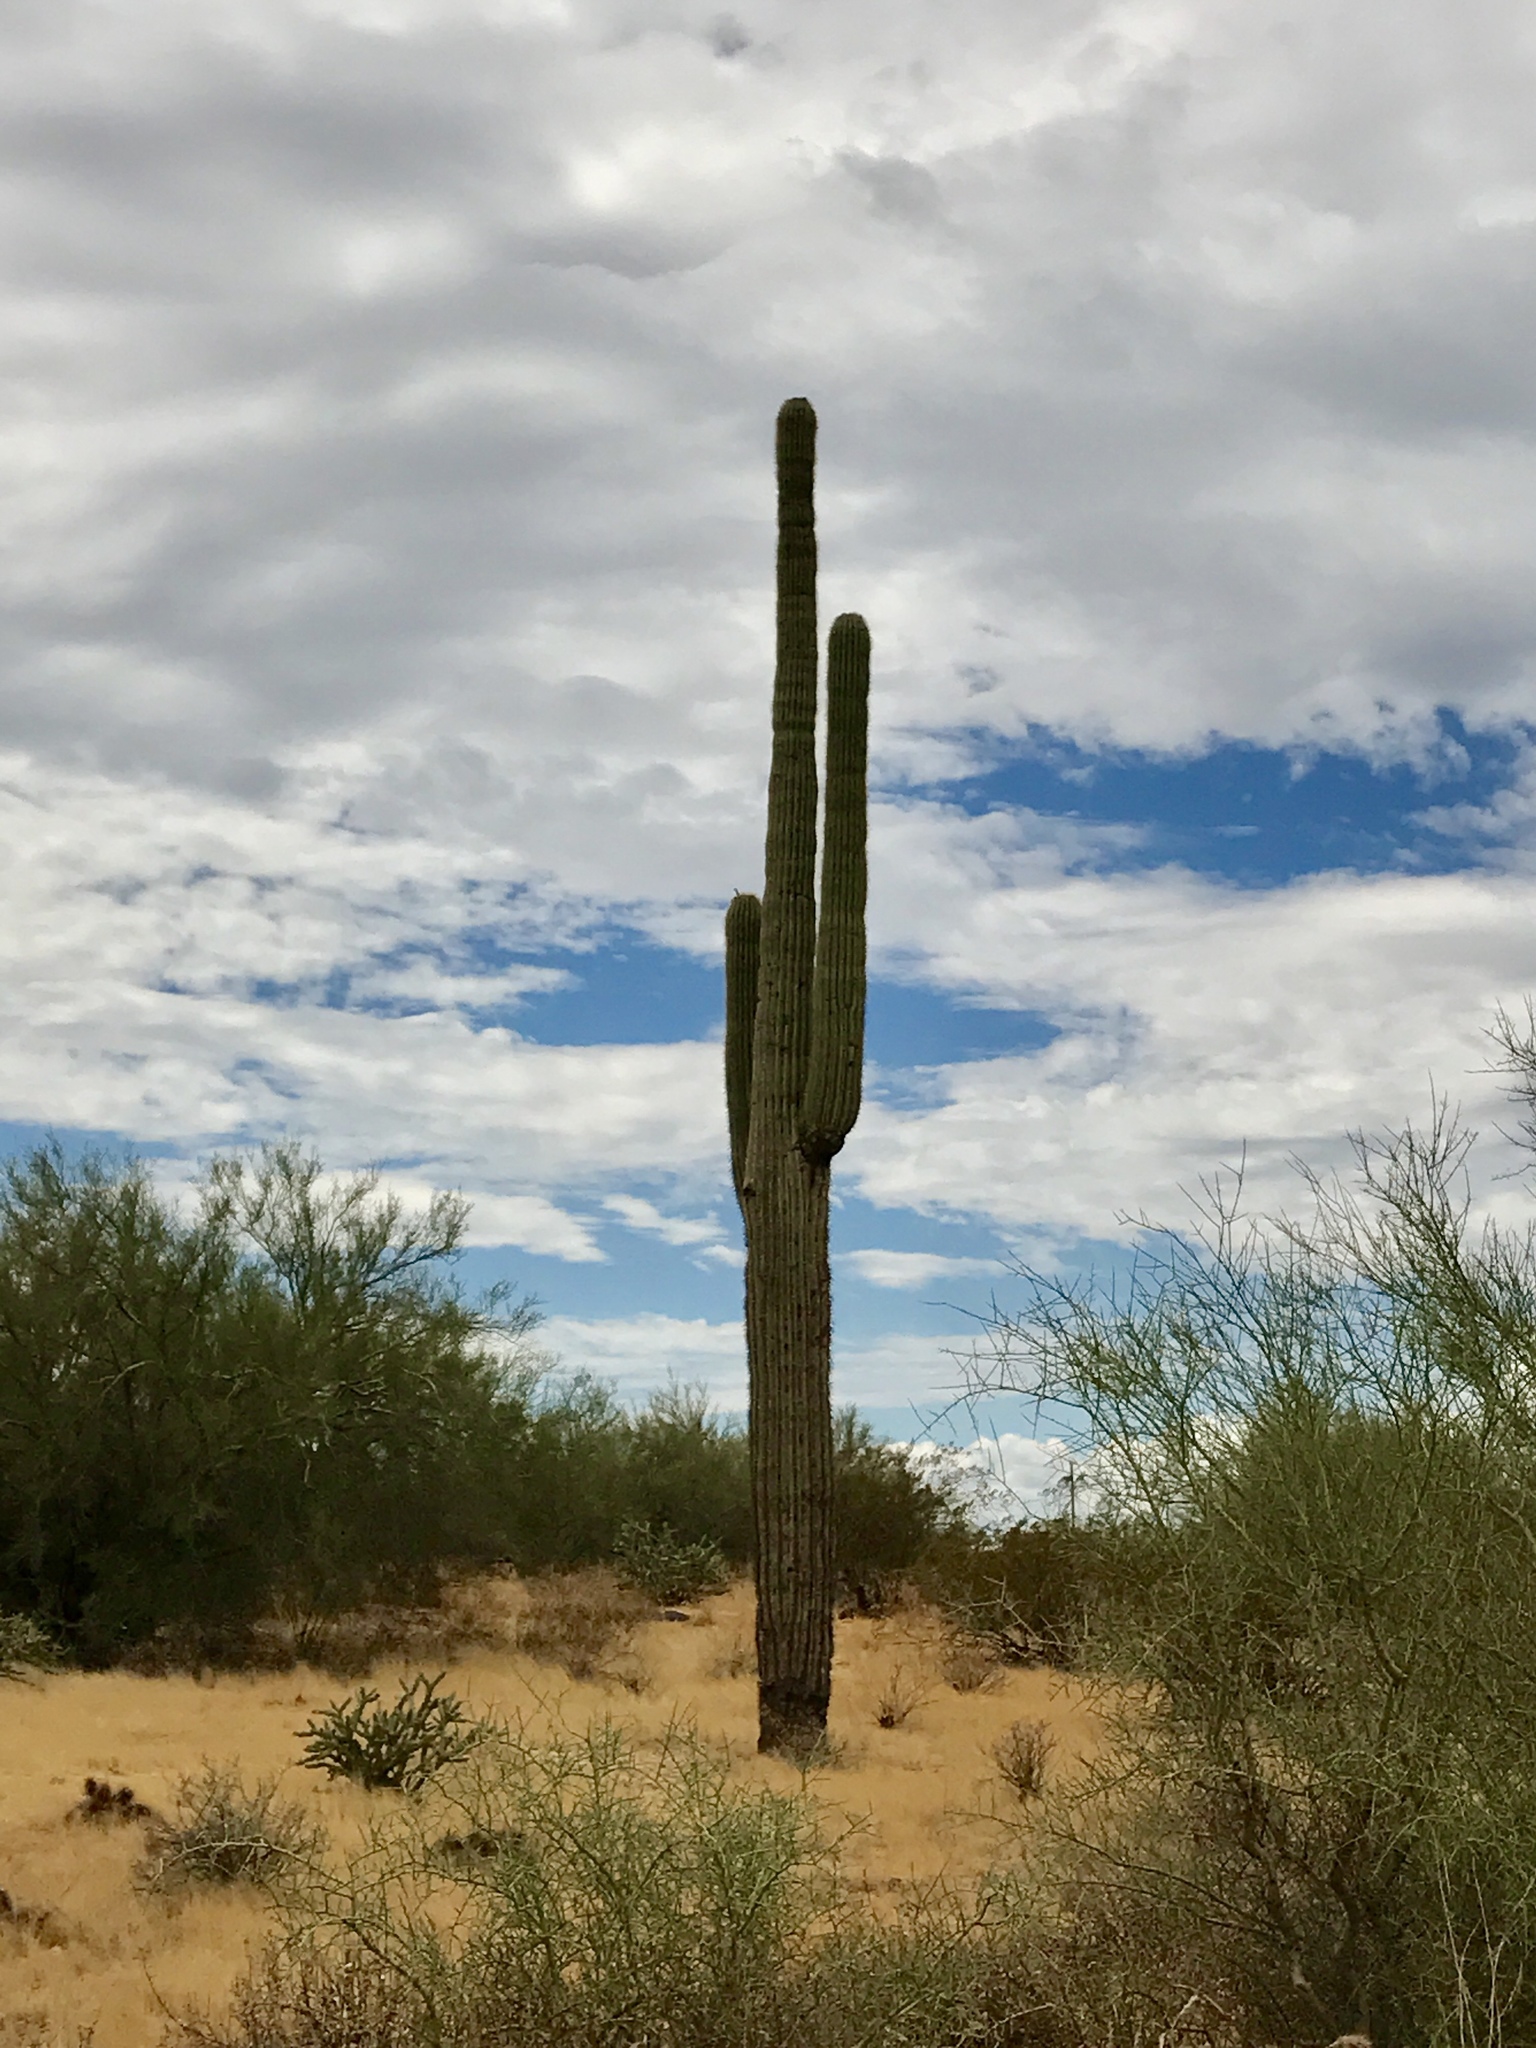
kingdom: Plantae
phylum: Tracheophyta
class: Magnoliopsida
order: Caryophyllales
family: Cactaceae
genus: Carnegiea
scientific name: Carnegiea gigantea
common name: Saguaro
